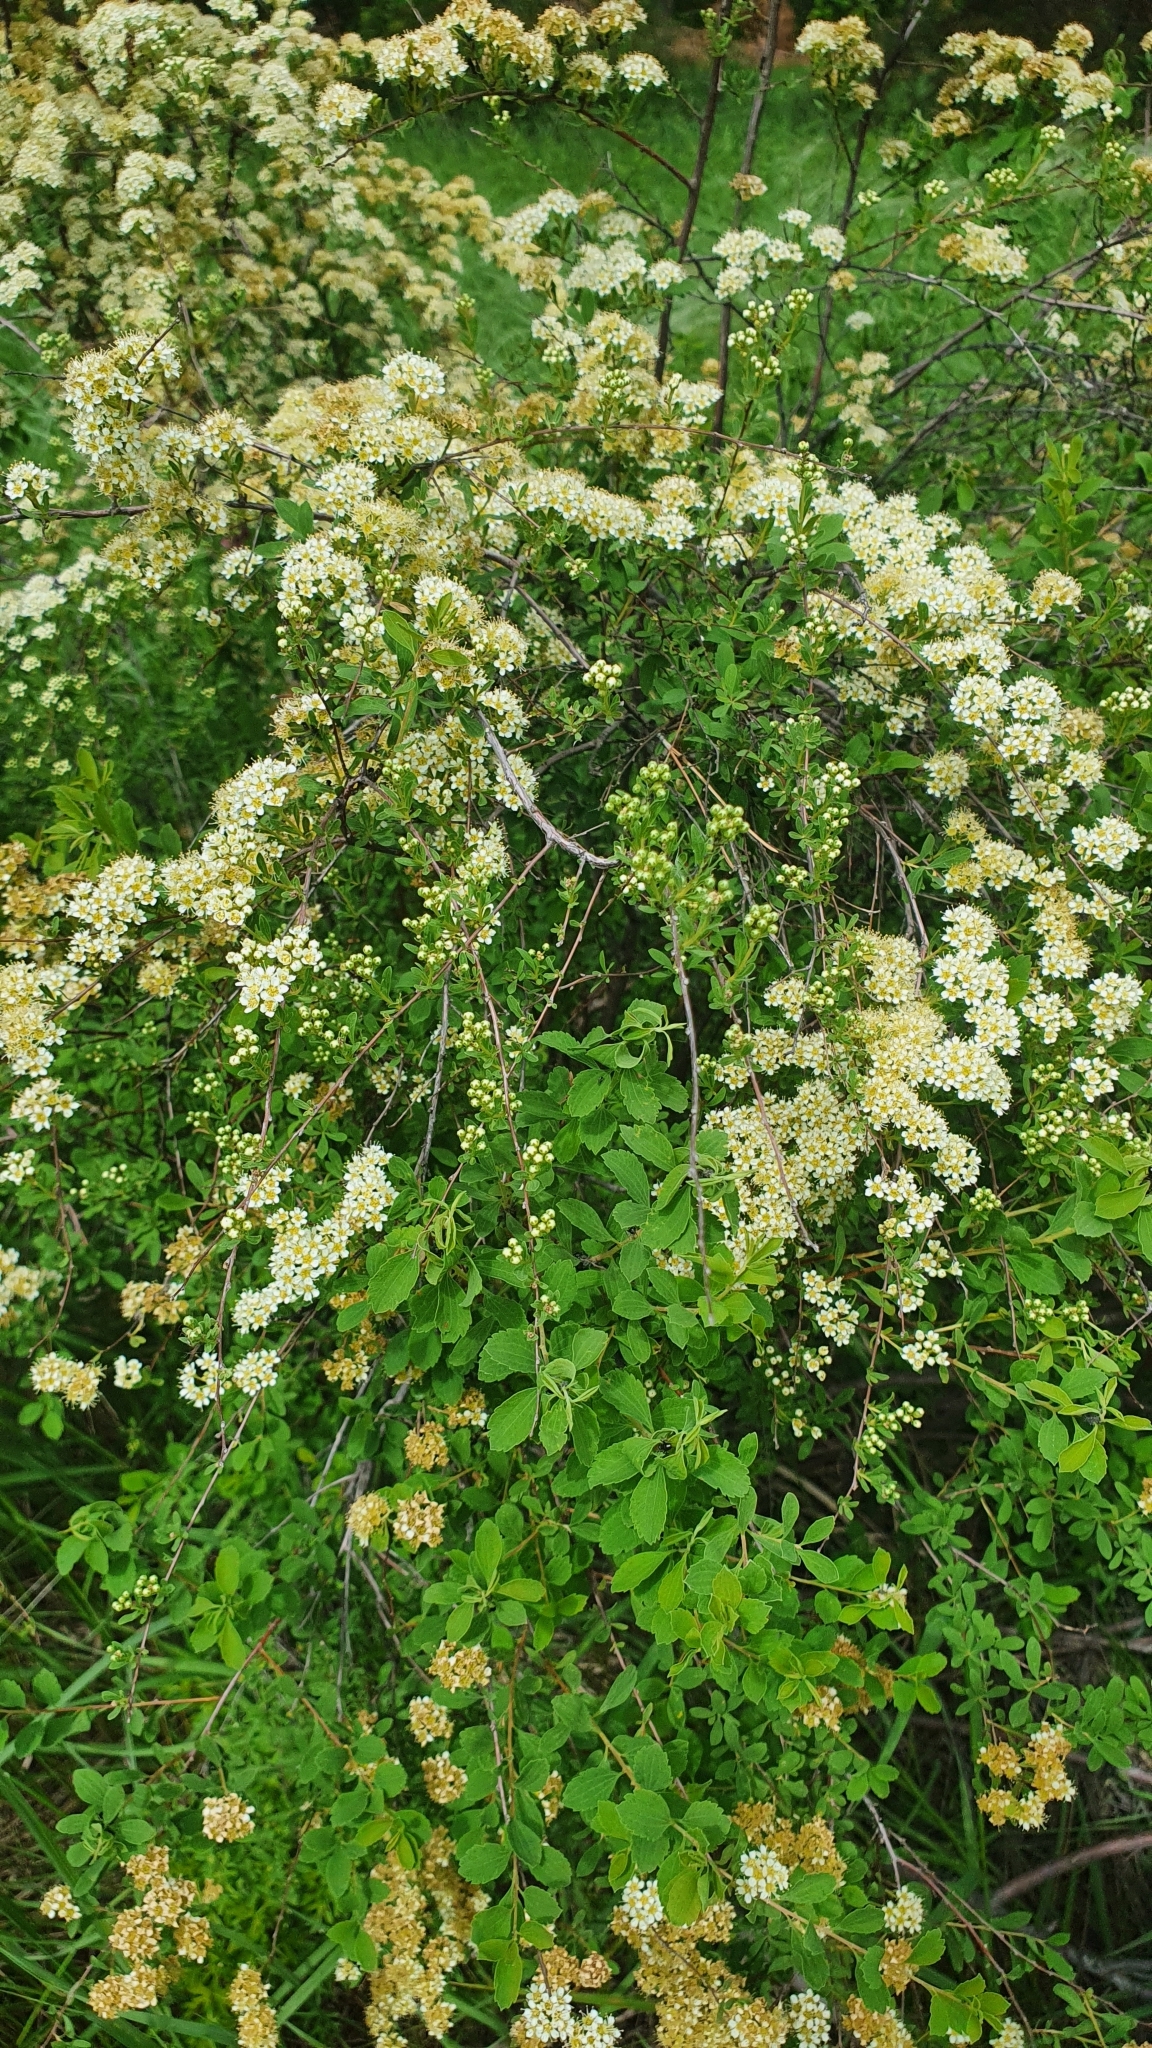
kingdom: Plantae
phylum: Tracheophyta
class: Magnoliopsida
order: Rosales
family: Rosaceae
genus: Spiraea
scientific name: Spiraea crenata
